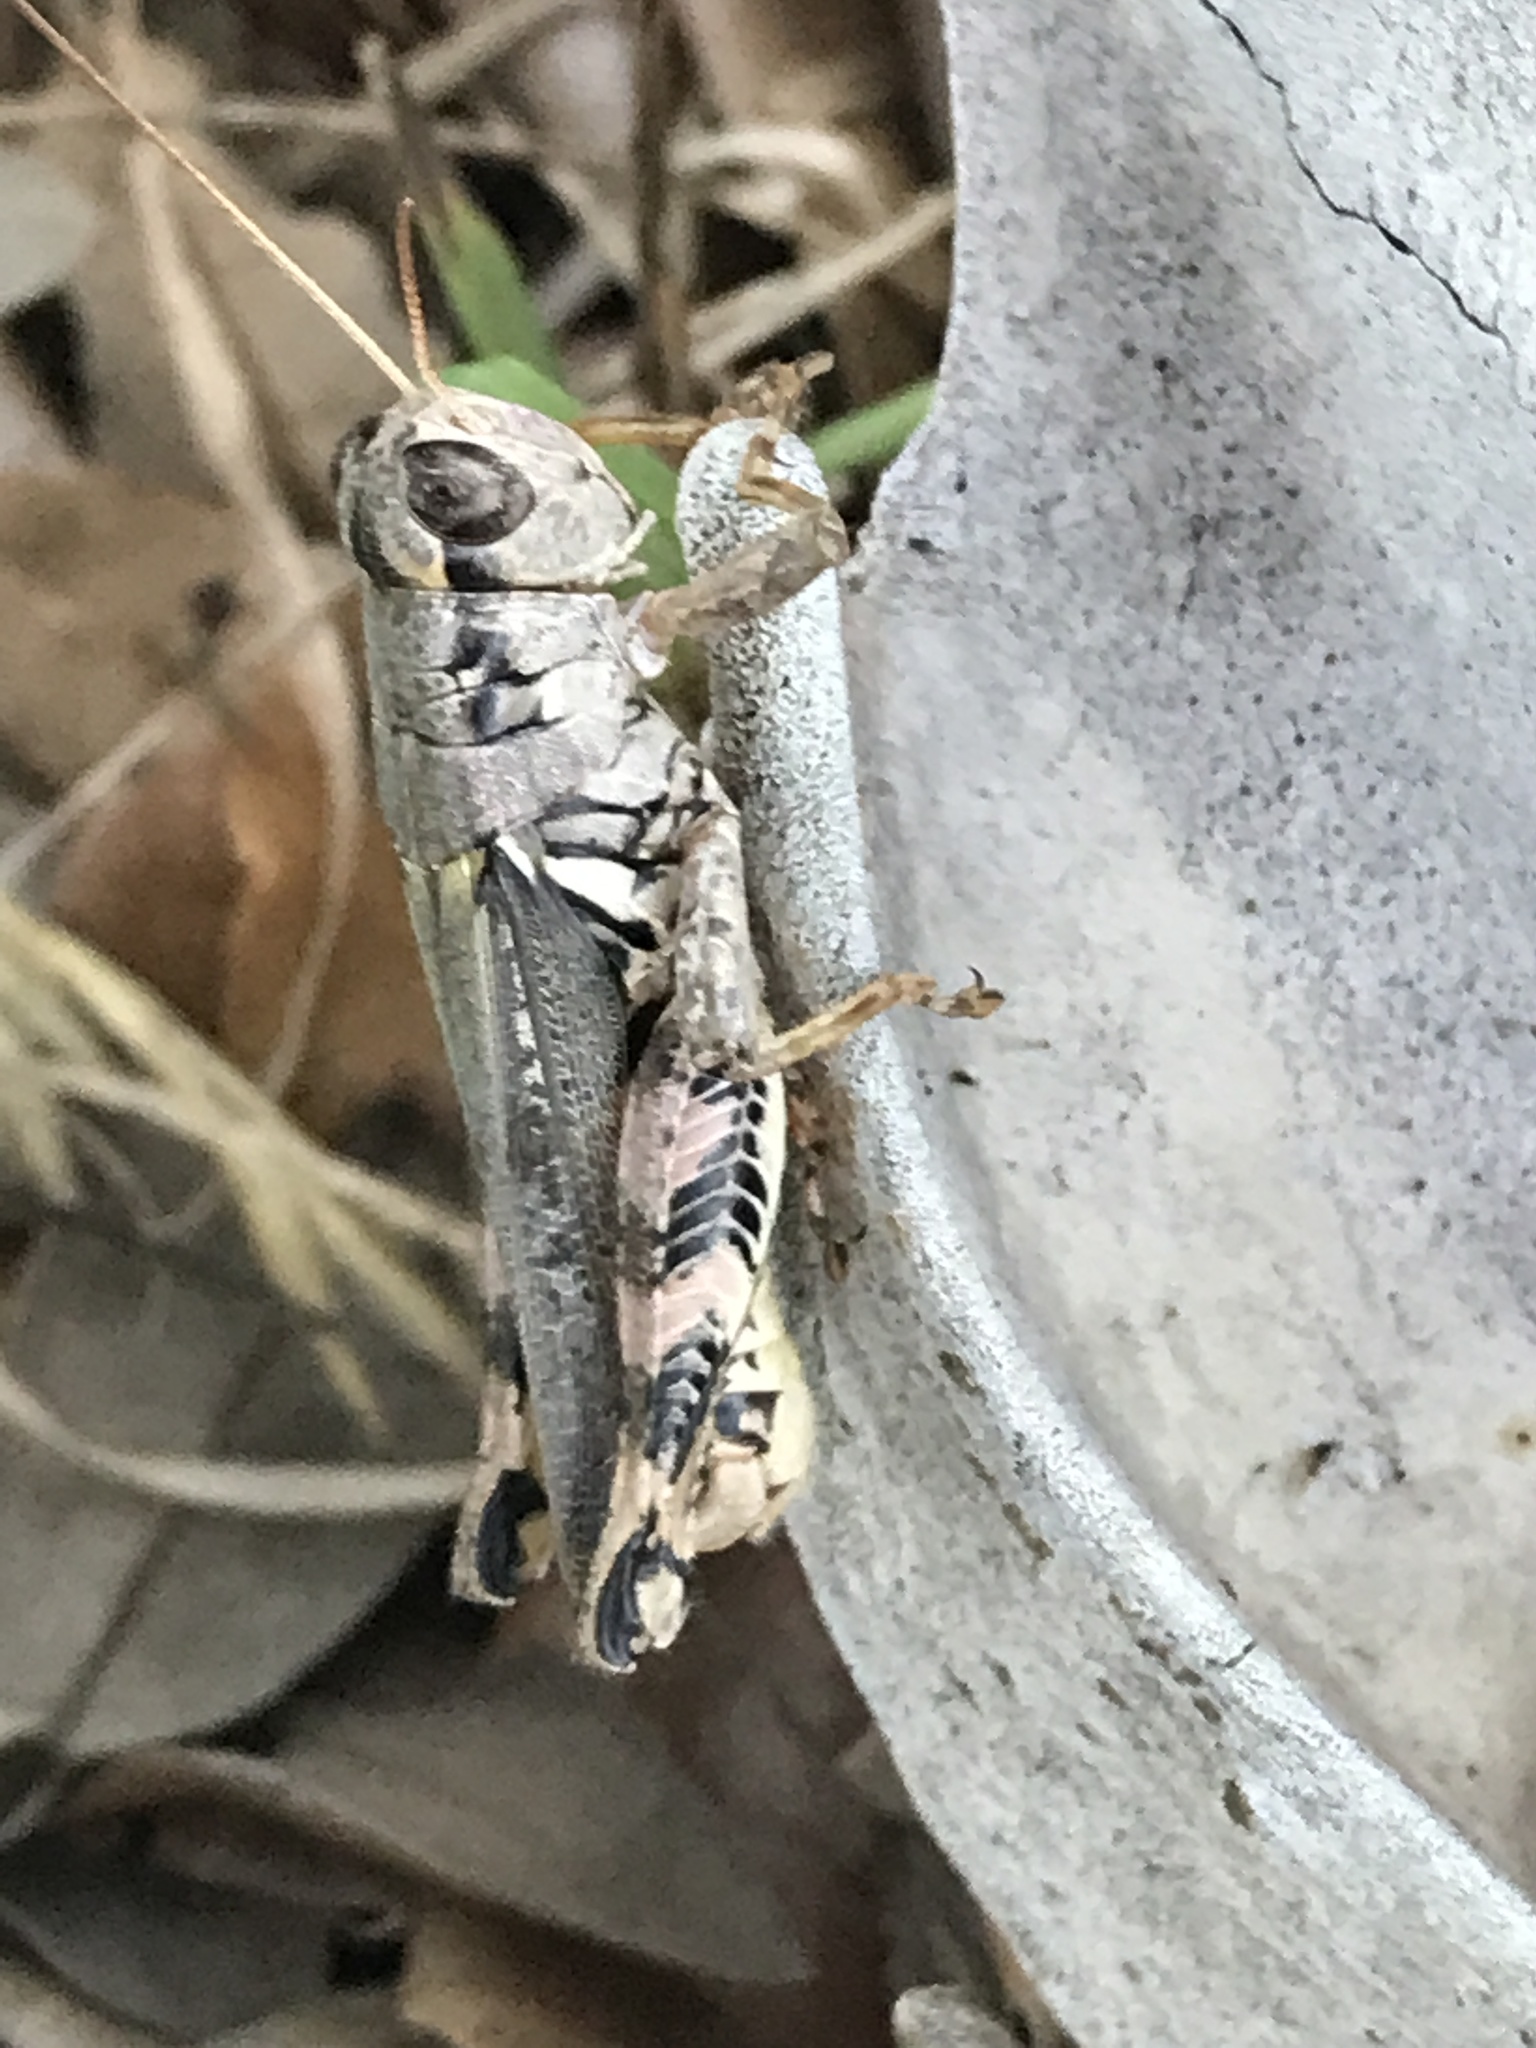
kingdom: Animalia
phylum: Arthropoda
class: Insecta
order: Orthoptera
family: Acrididae
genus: Melanoplus
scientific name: Melanoplus ponderosus
